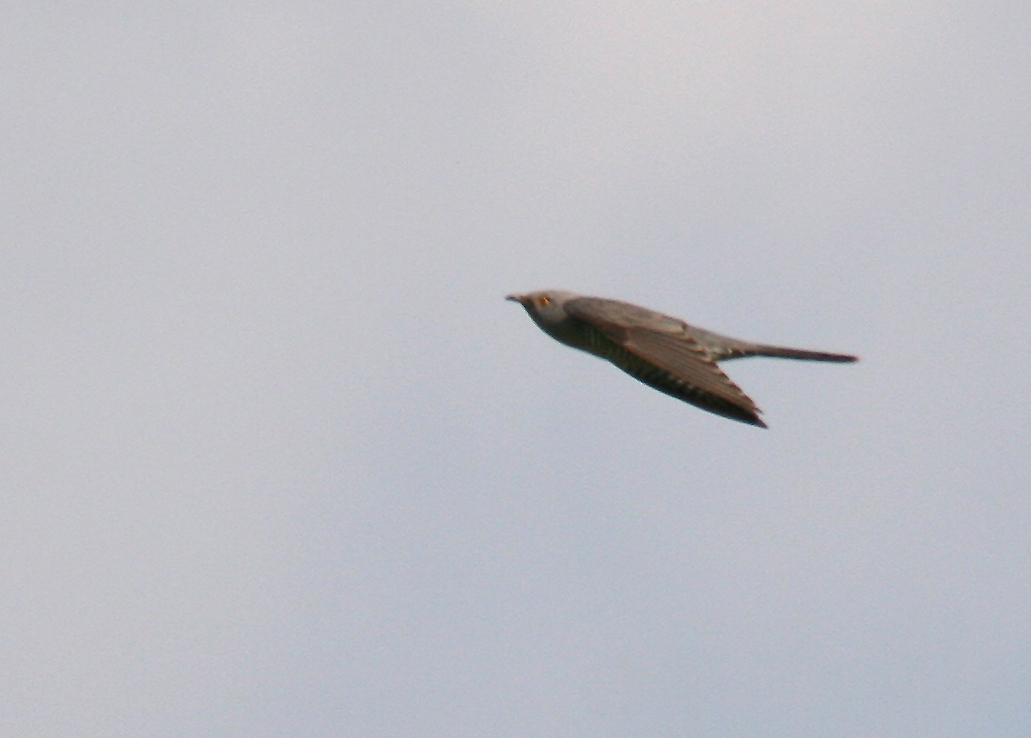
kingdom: Animalia
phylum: Chordata
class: Aves
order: Cuculiformes
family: Cuculidae
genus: Cuculus
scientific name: Cuculus canorus
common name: Common cuckoo
